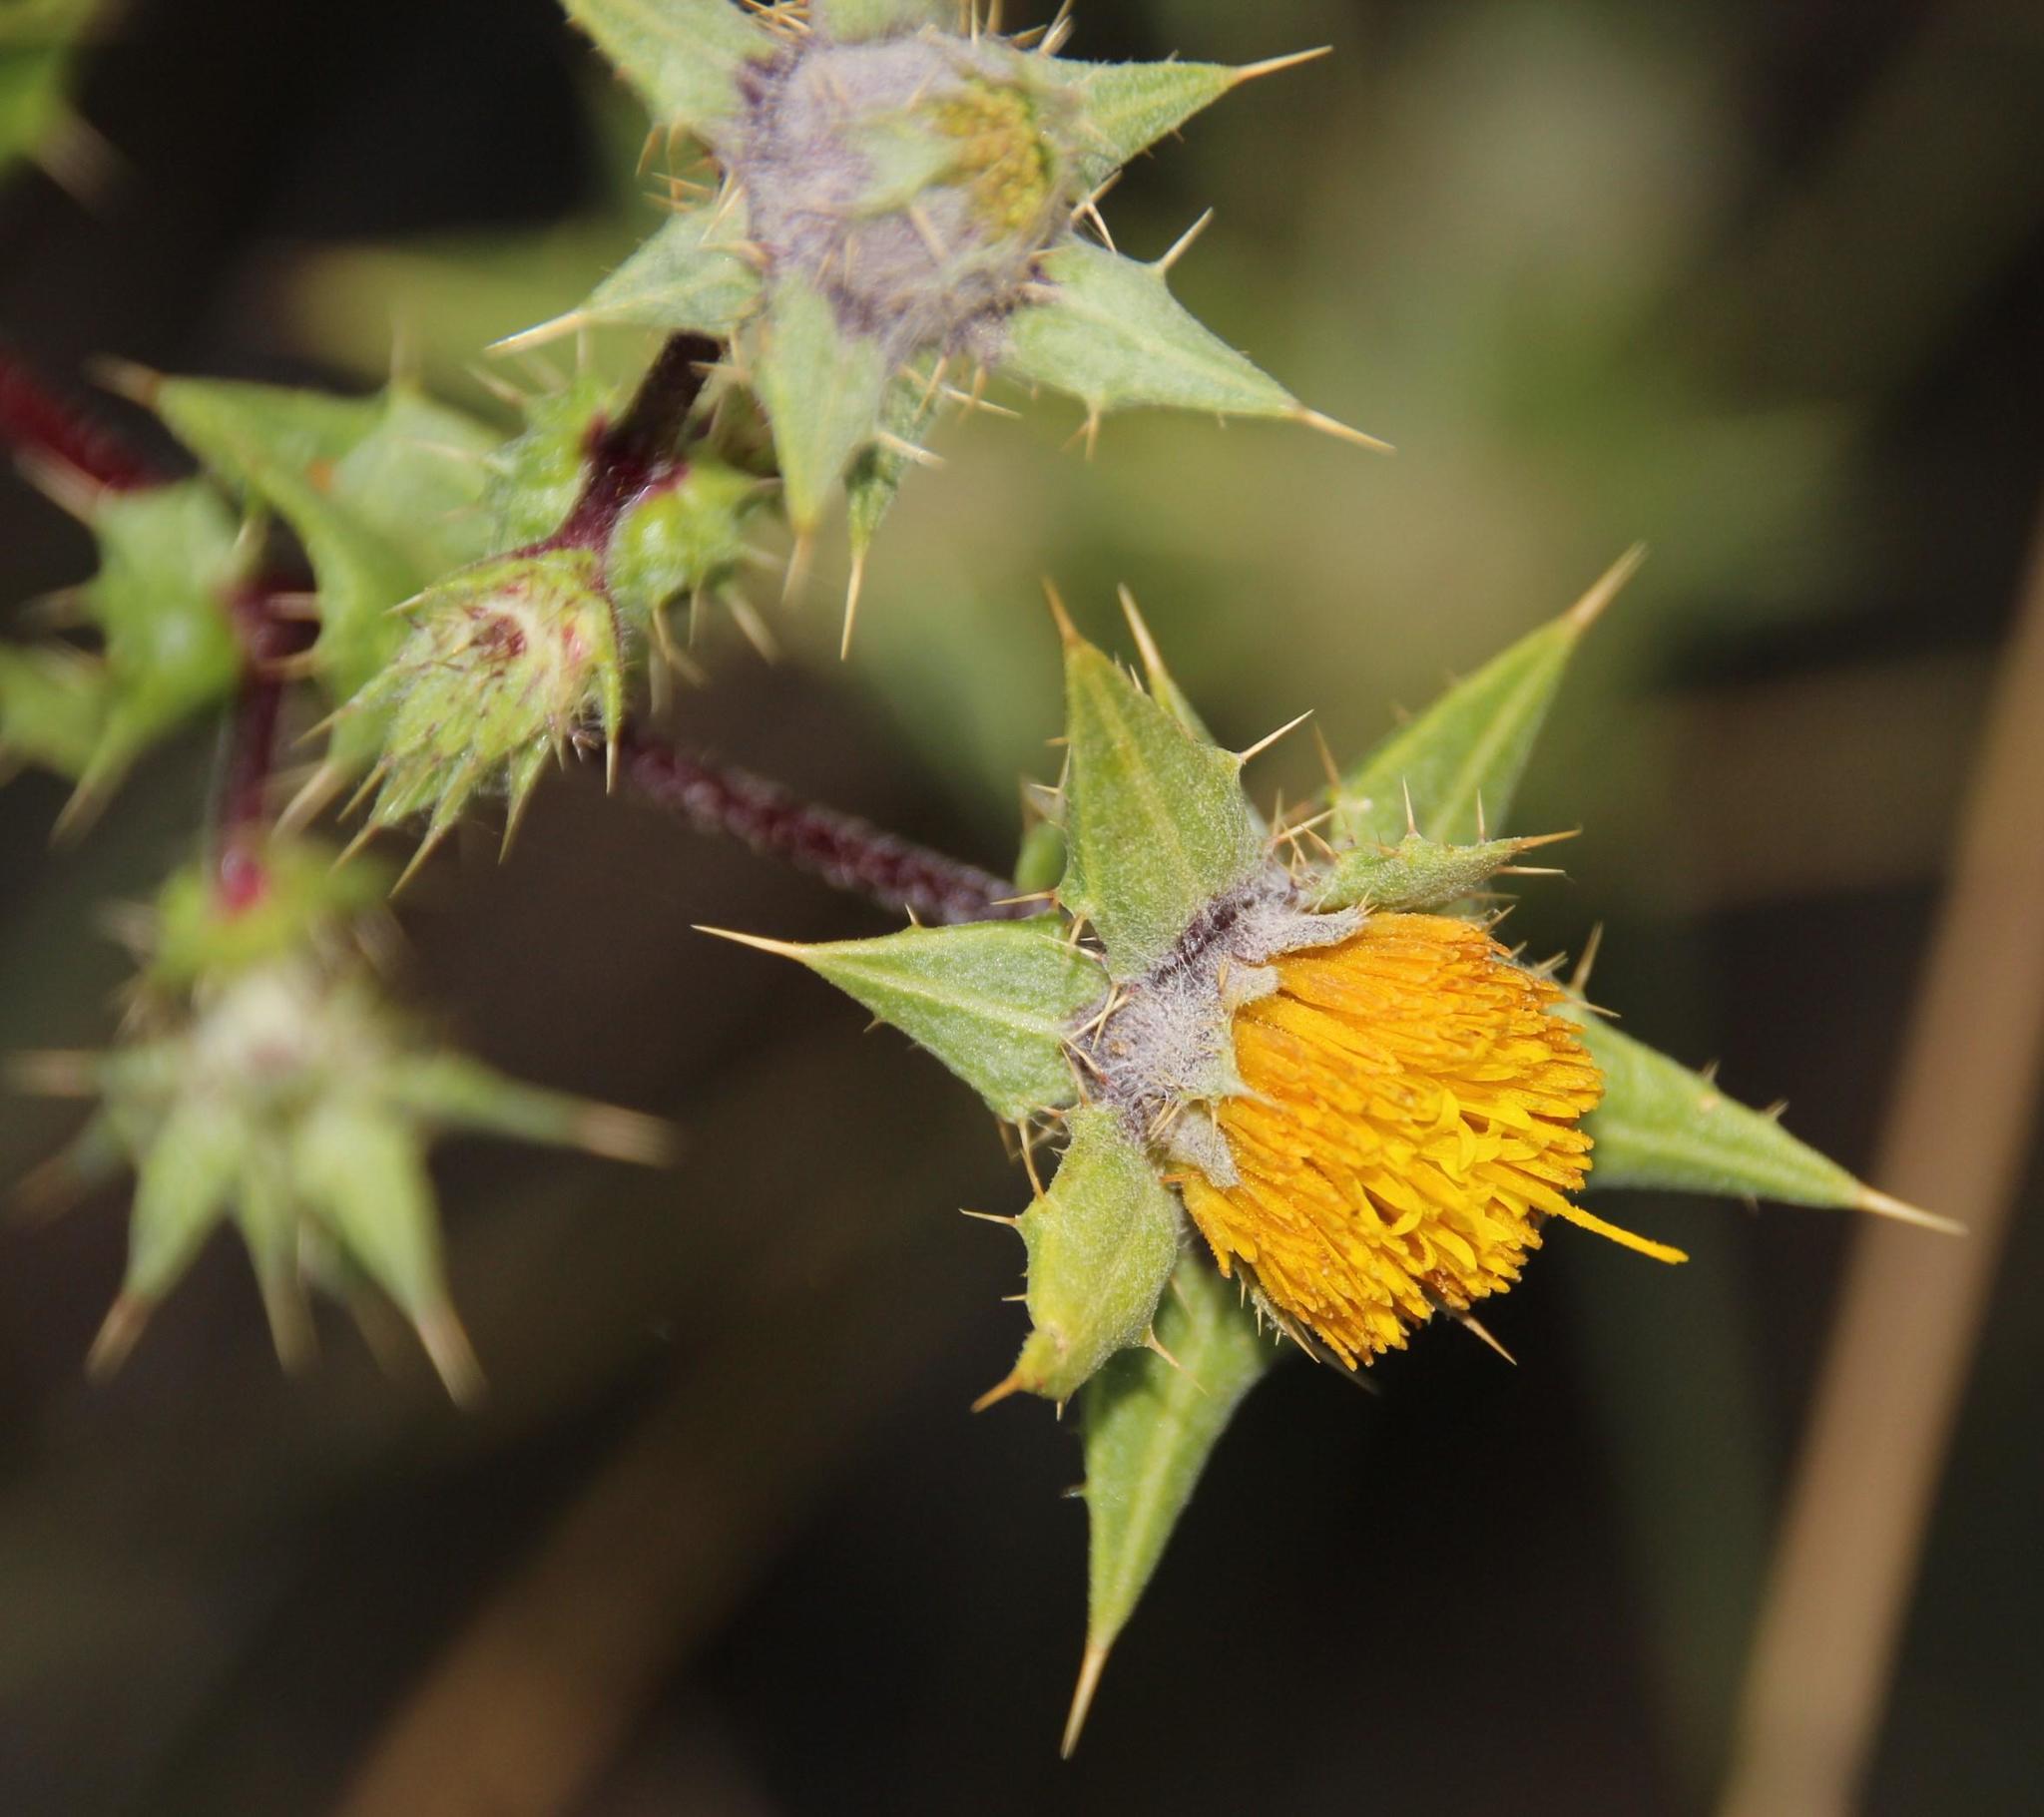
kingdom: Plantae
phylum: Tracheophyta
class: Magnoliopsida
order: Asterales
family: Asteraceae
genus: Berkheya
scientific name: Berkheya onobromoides
